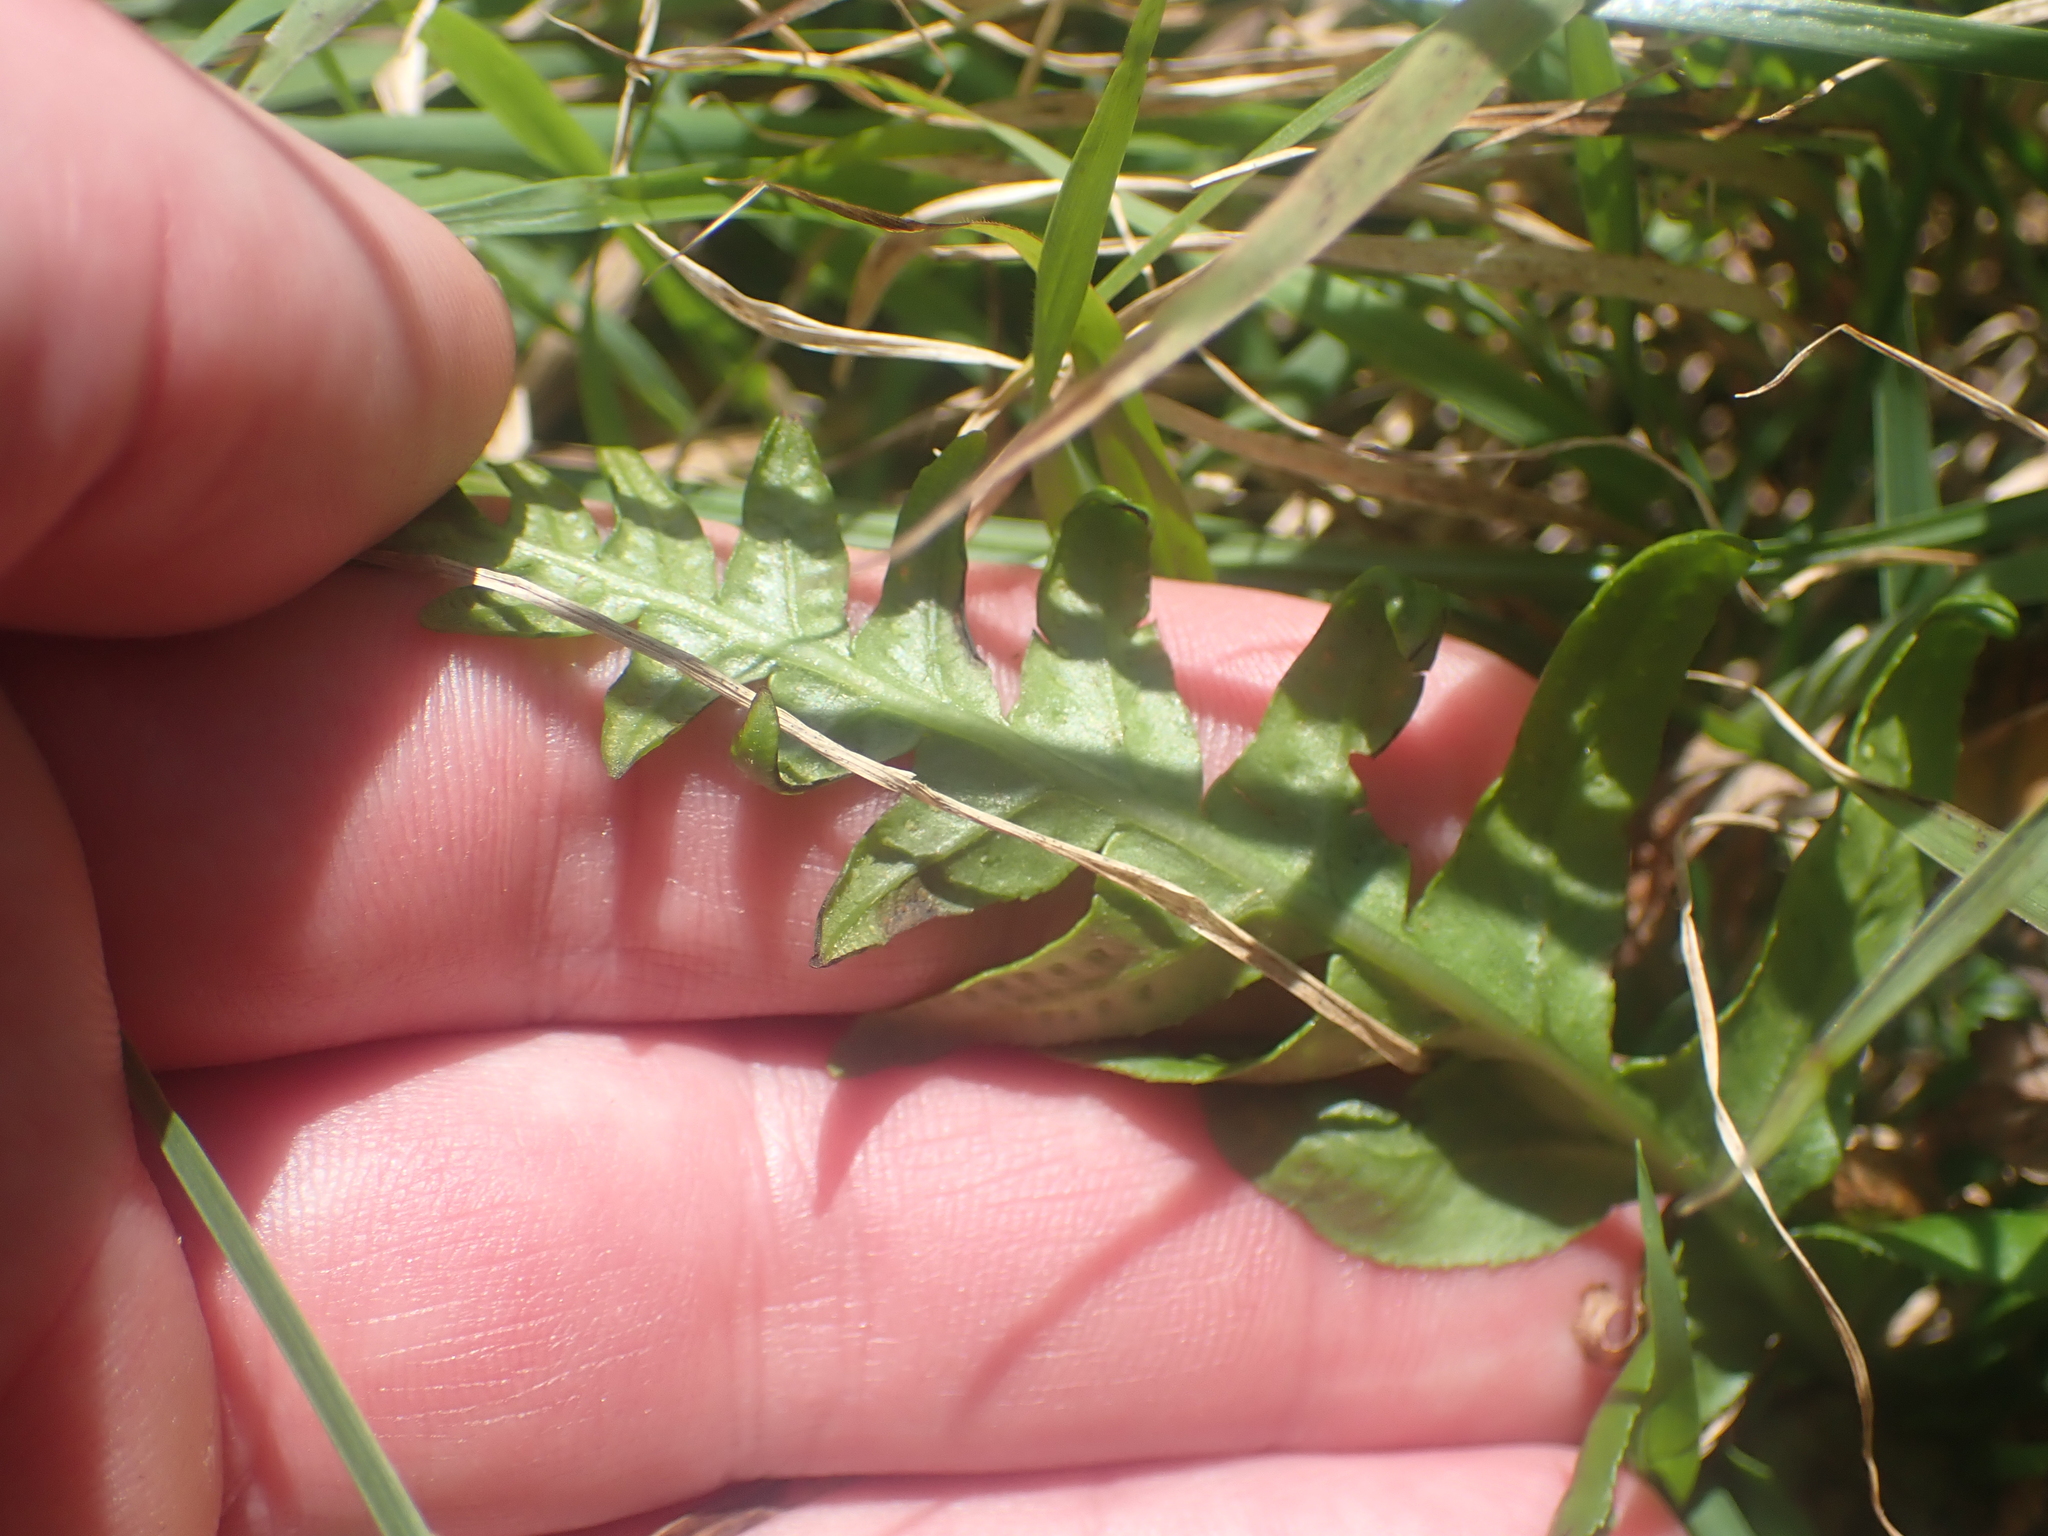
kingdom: Plantae
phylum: Tracheophyta
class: Polypodiopsida
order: Polypodiales
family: Polypodiaceae
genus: Polypodium
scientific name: Polypodium vulgare
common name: Common polypody
